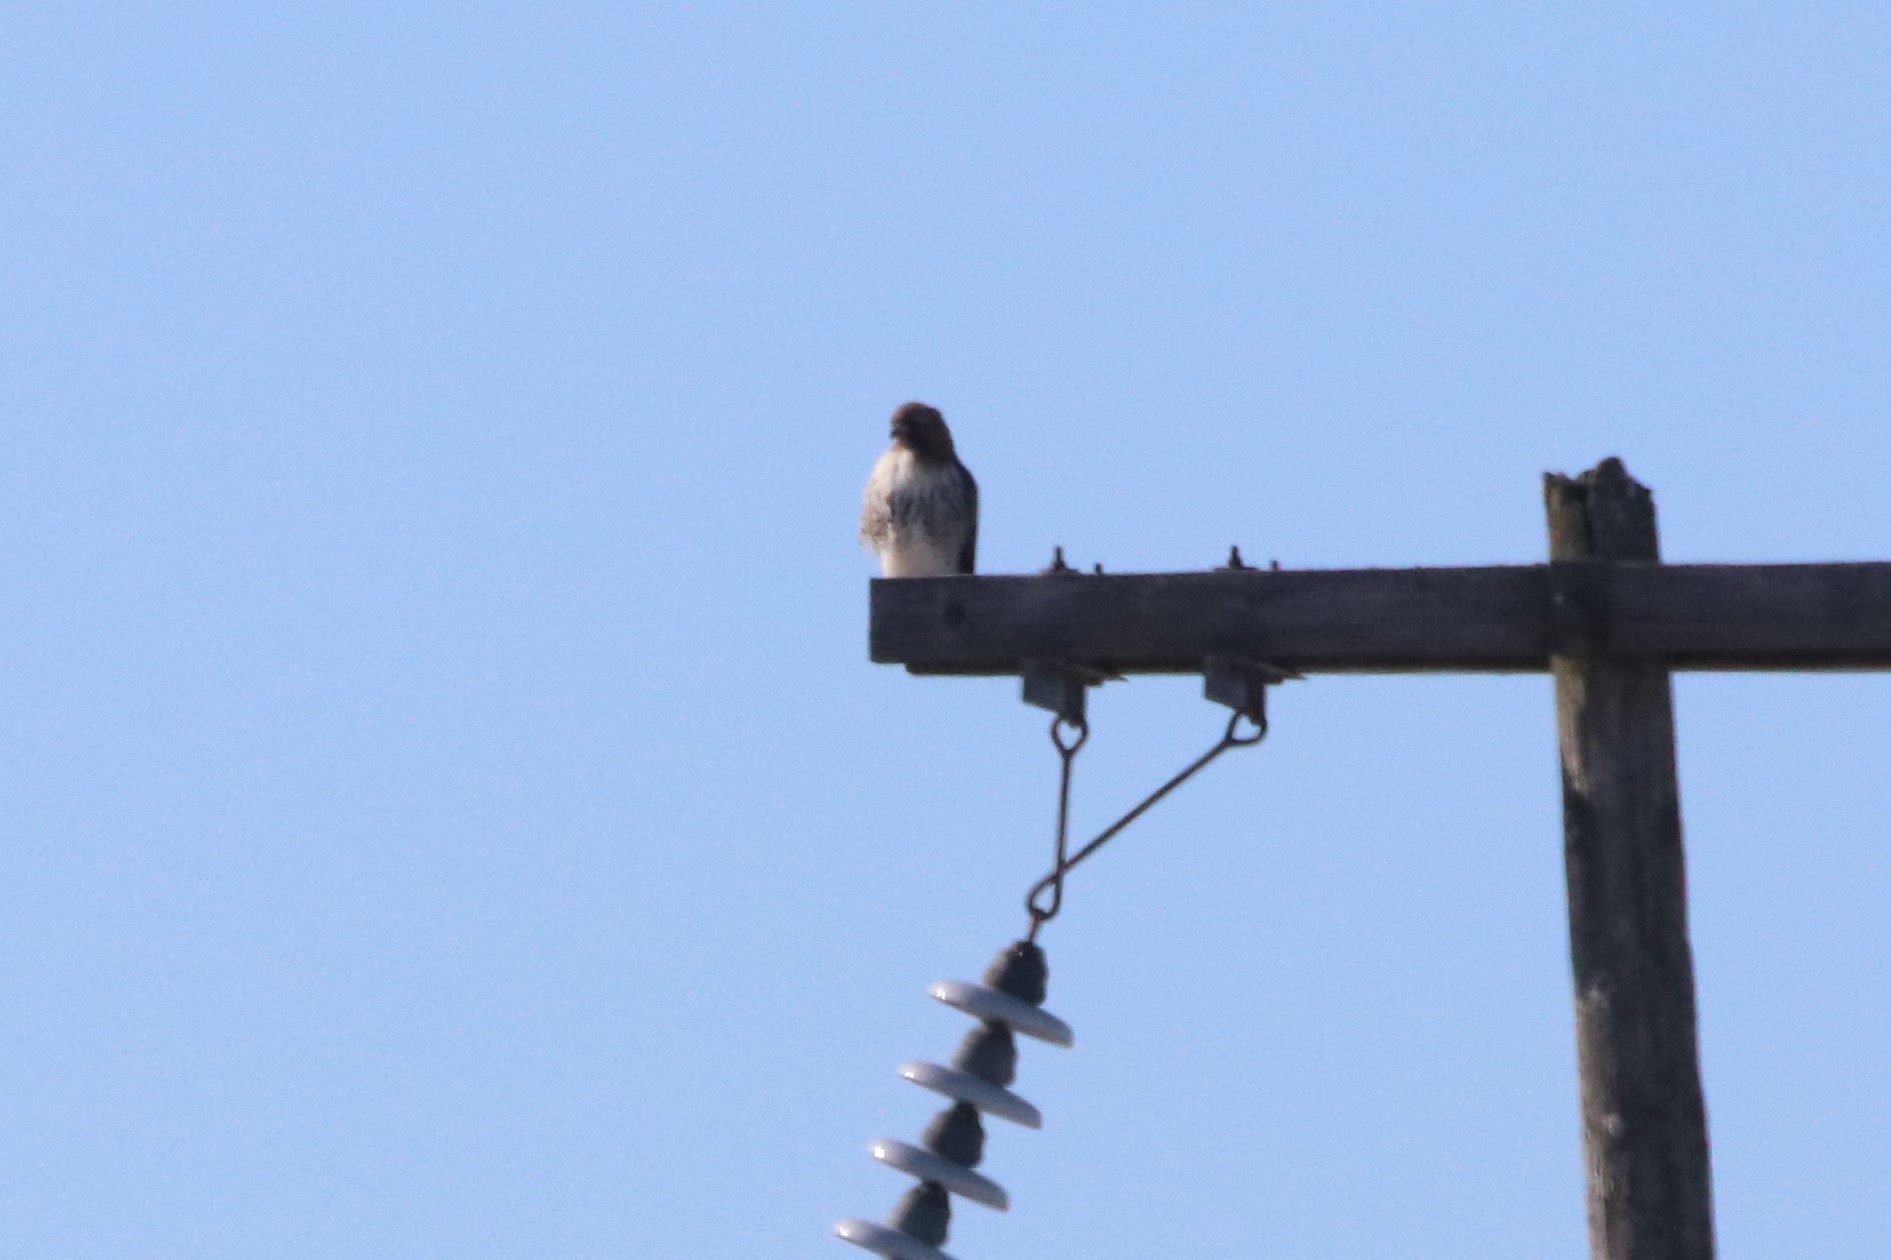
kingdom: Animalia
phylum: Chordata
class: Aves
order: Accipitriformes
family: Accipitridae
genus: Buteo
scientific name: Buteo jamaicensis
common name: Red-tailed hawk
